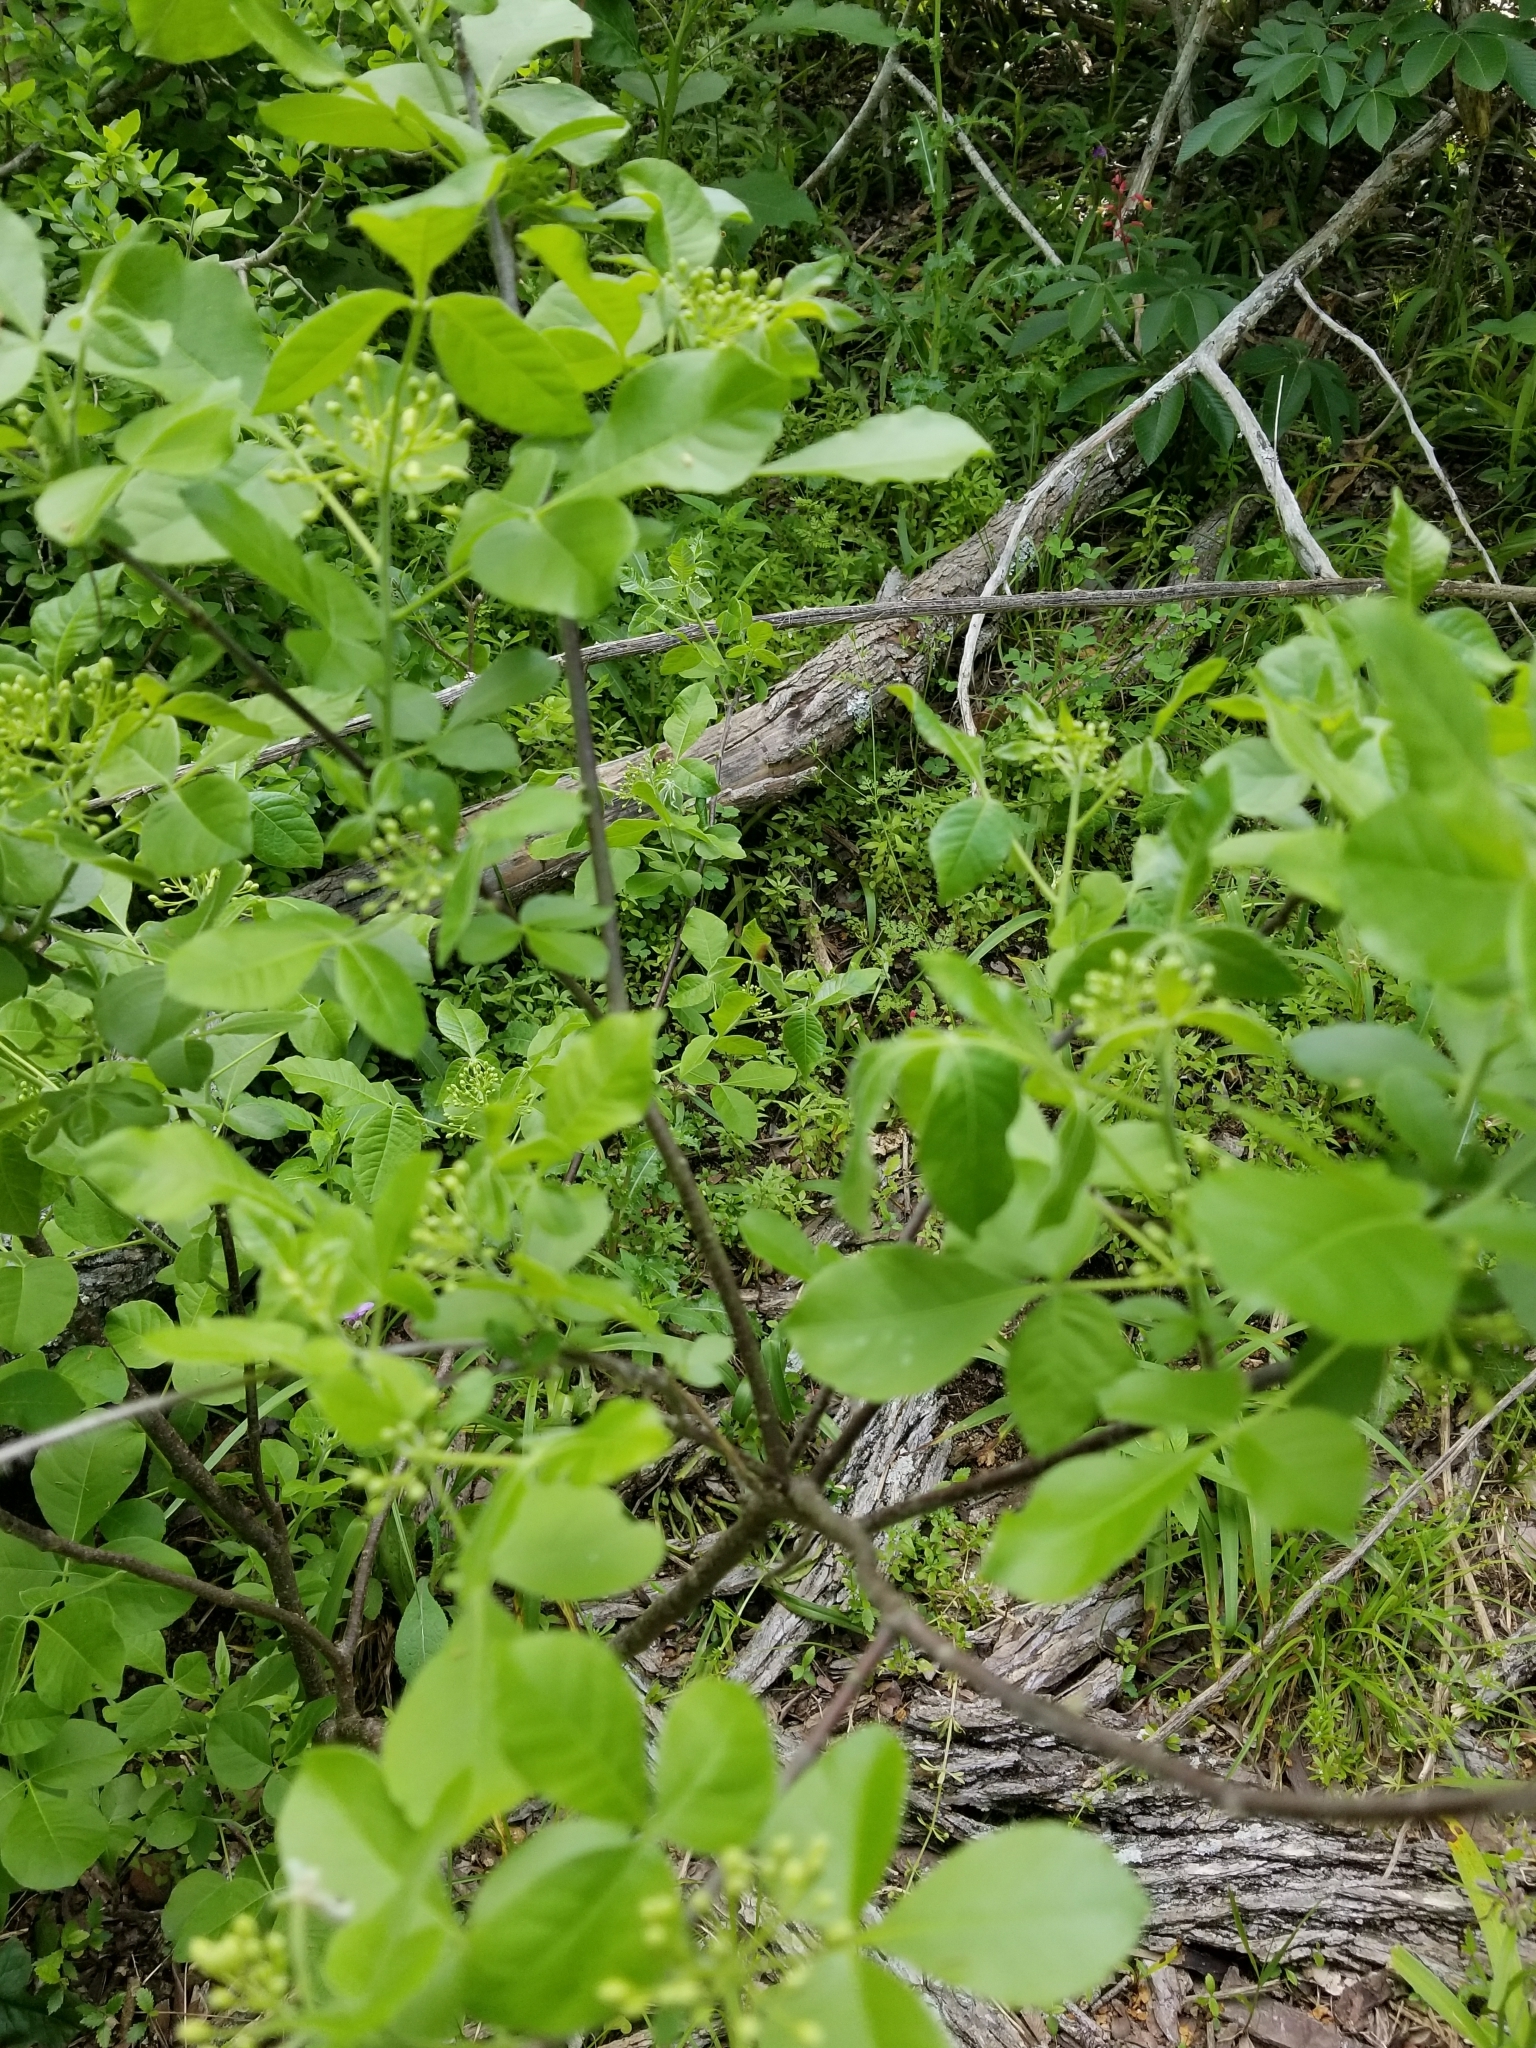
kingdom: Plantae
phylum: Tracheophyta
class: Magnoliopsida
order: Sapindales
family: Rutaceae
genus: Ptelea
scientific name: Ptelea trifoliata
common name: Common hop-tree
